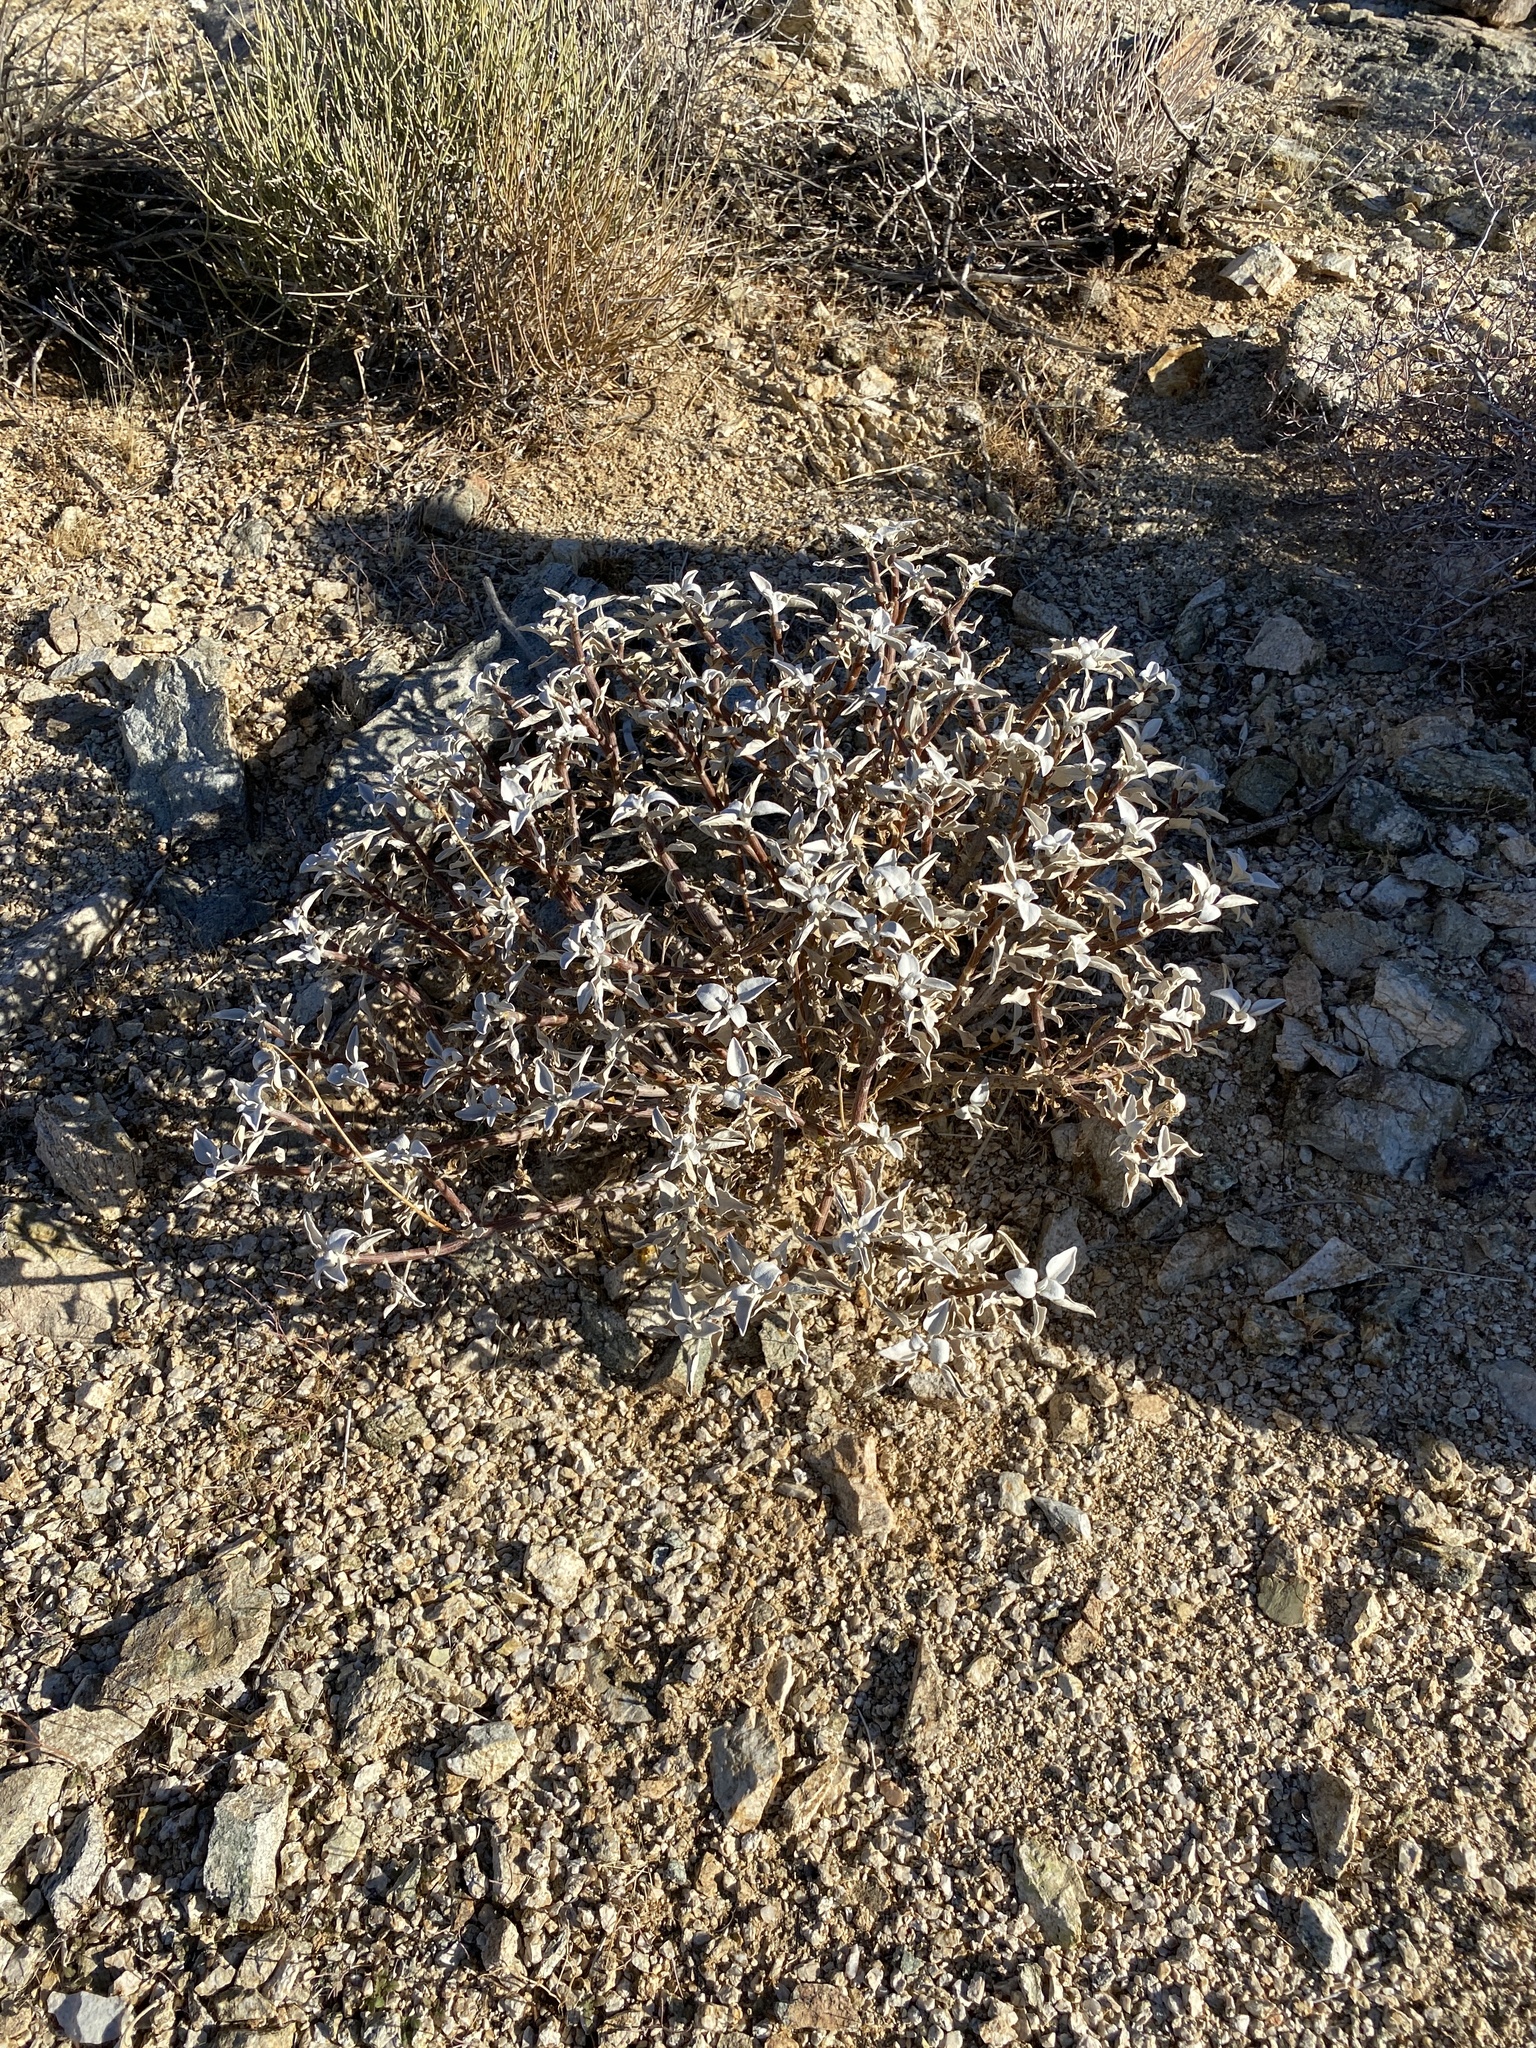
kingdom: Plantae
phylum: Tracheophyta
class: Magnoliopsida
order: Asterales
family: Asteraceae
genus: Encelia
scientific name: Encelia farinosa
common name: Brittlebush
